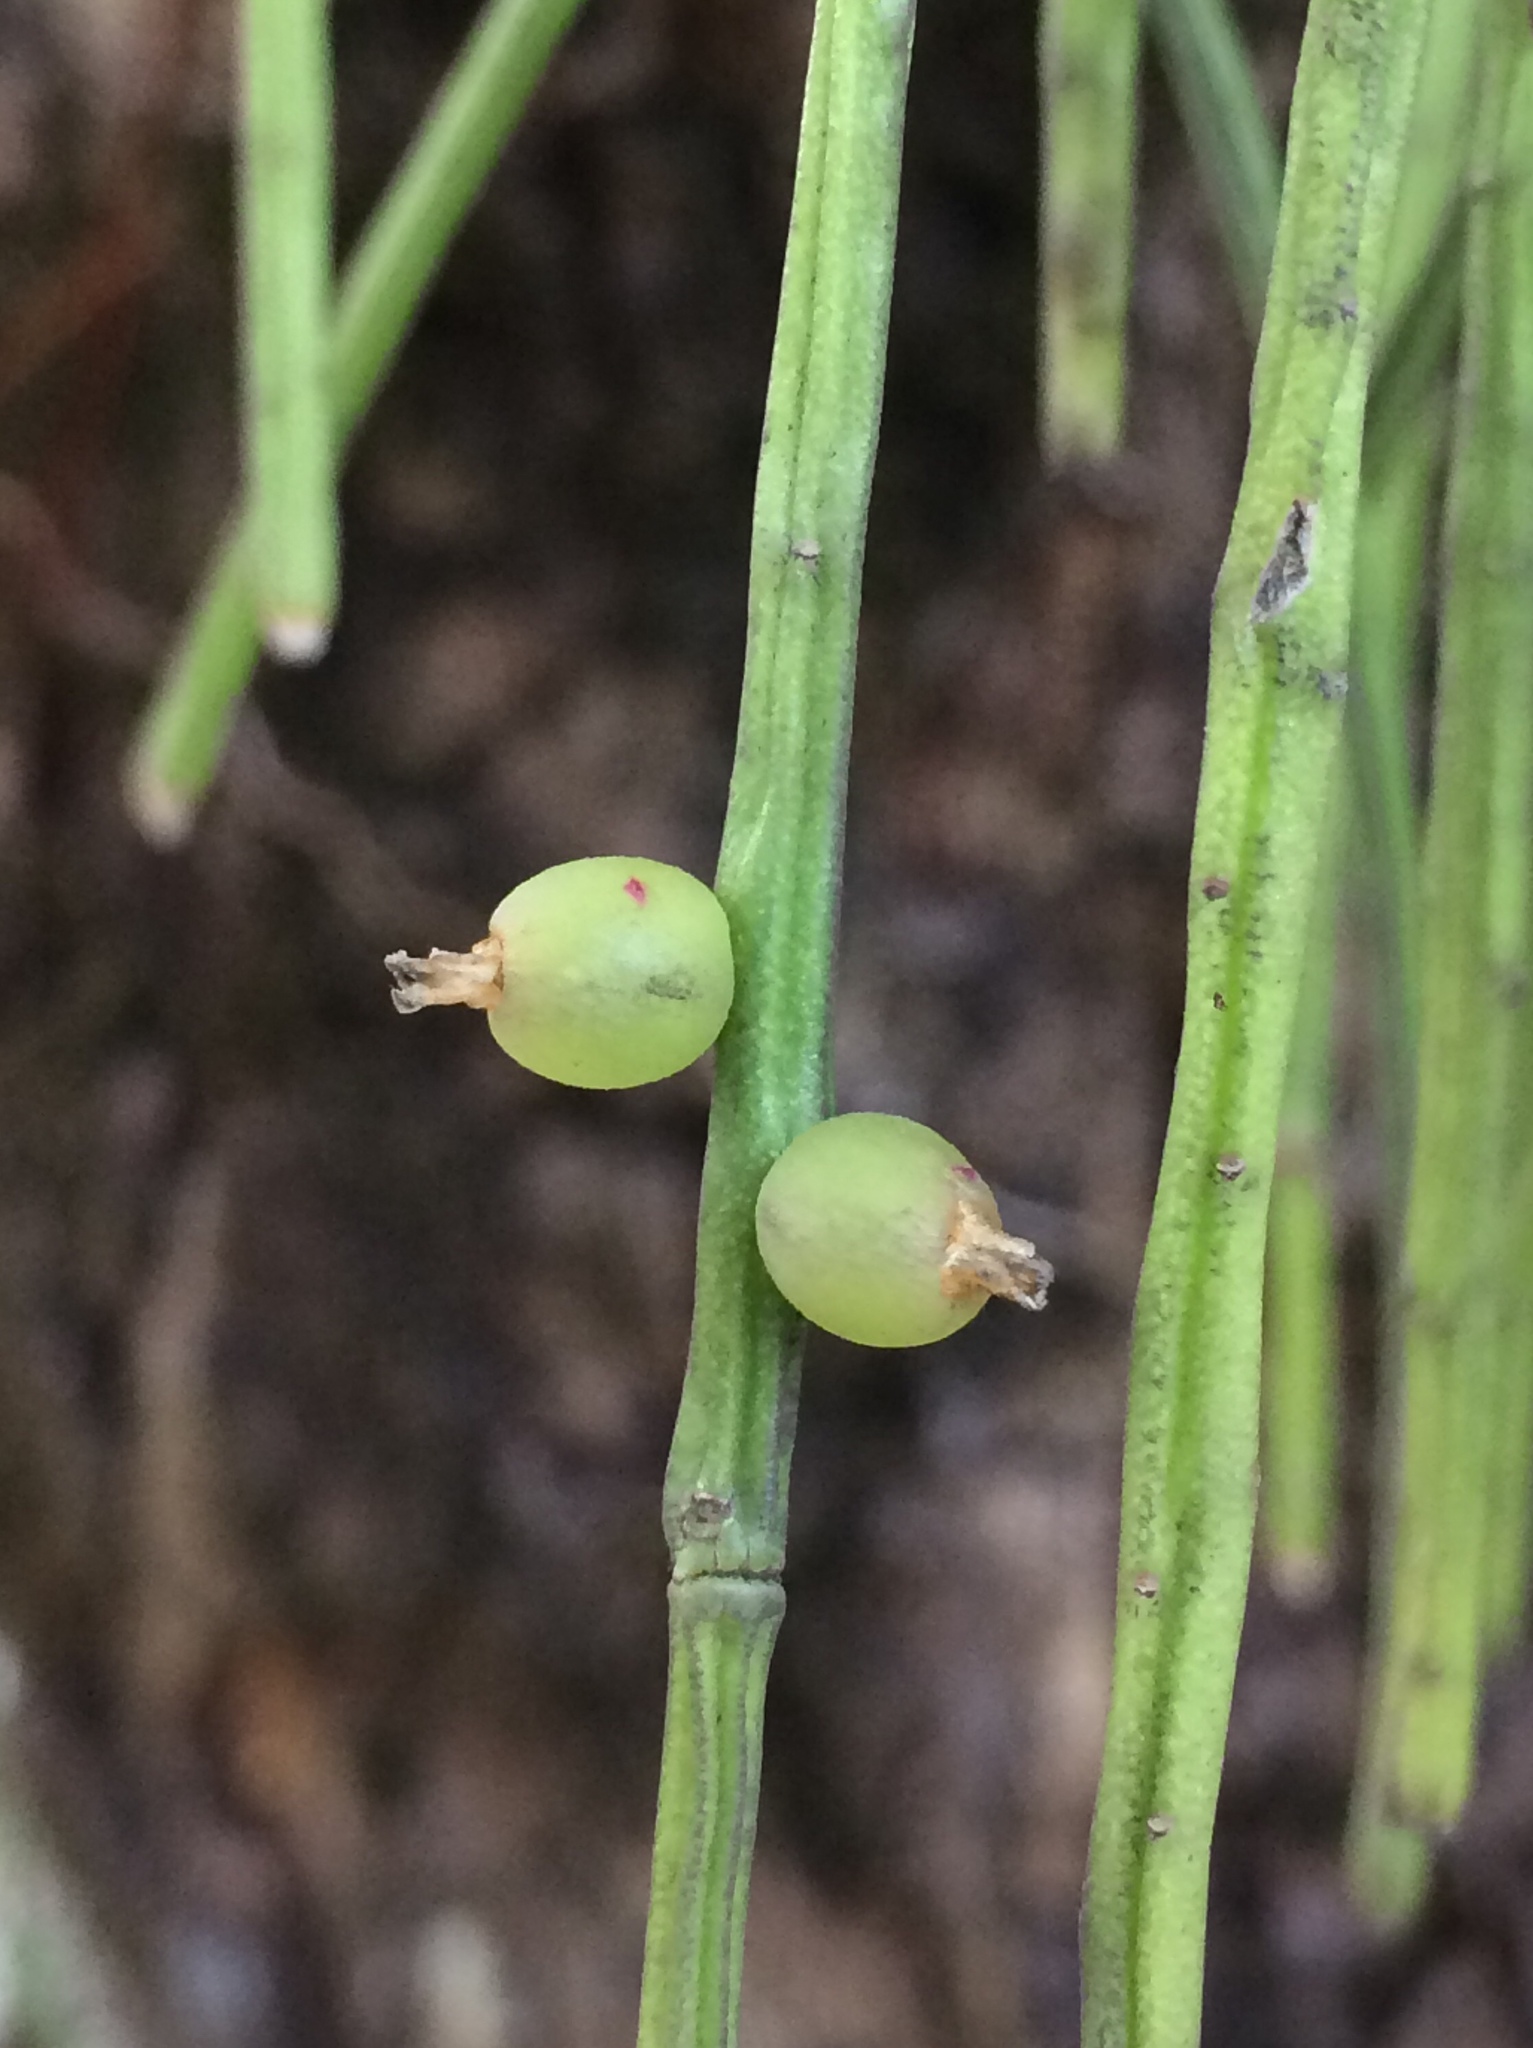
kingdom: Plantae
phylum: Tracheophyta
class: Magnoliopsida
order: Caryophyllales
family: Cactaceae
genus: Rhipsalis
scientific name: Rhipsalis baccifera
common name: Mistletoe cactus
